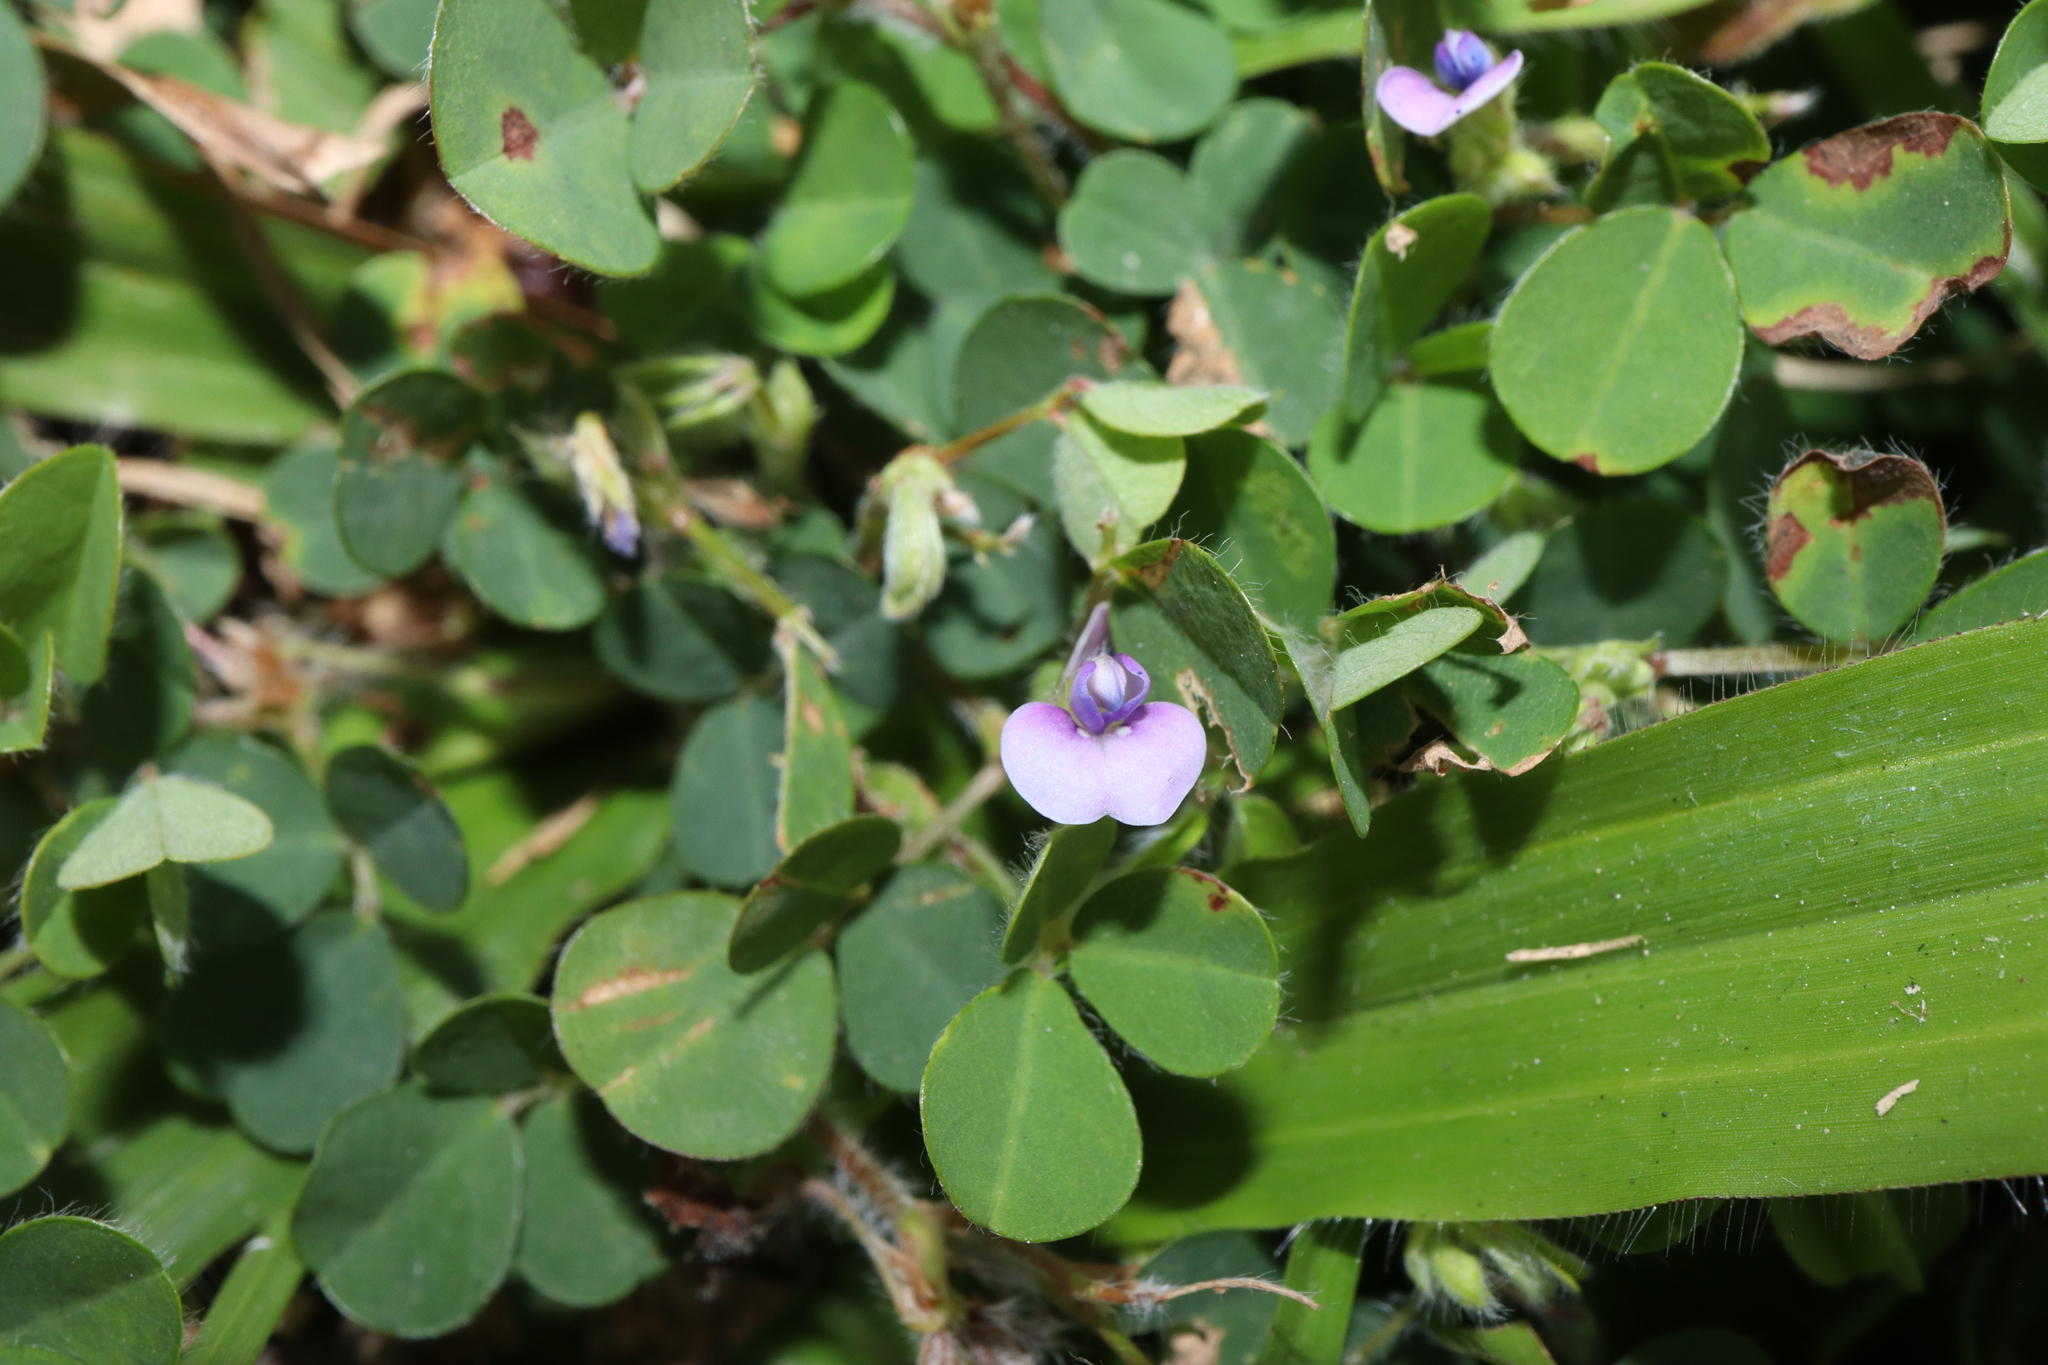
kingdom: Plantae
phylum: Tracheophyta
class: Magnoliopsida
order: Fabales
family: Fabaceae
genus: Grona
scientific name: Grona triflora
